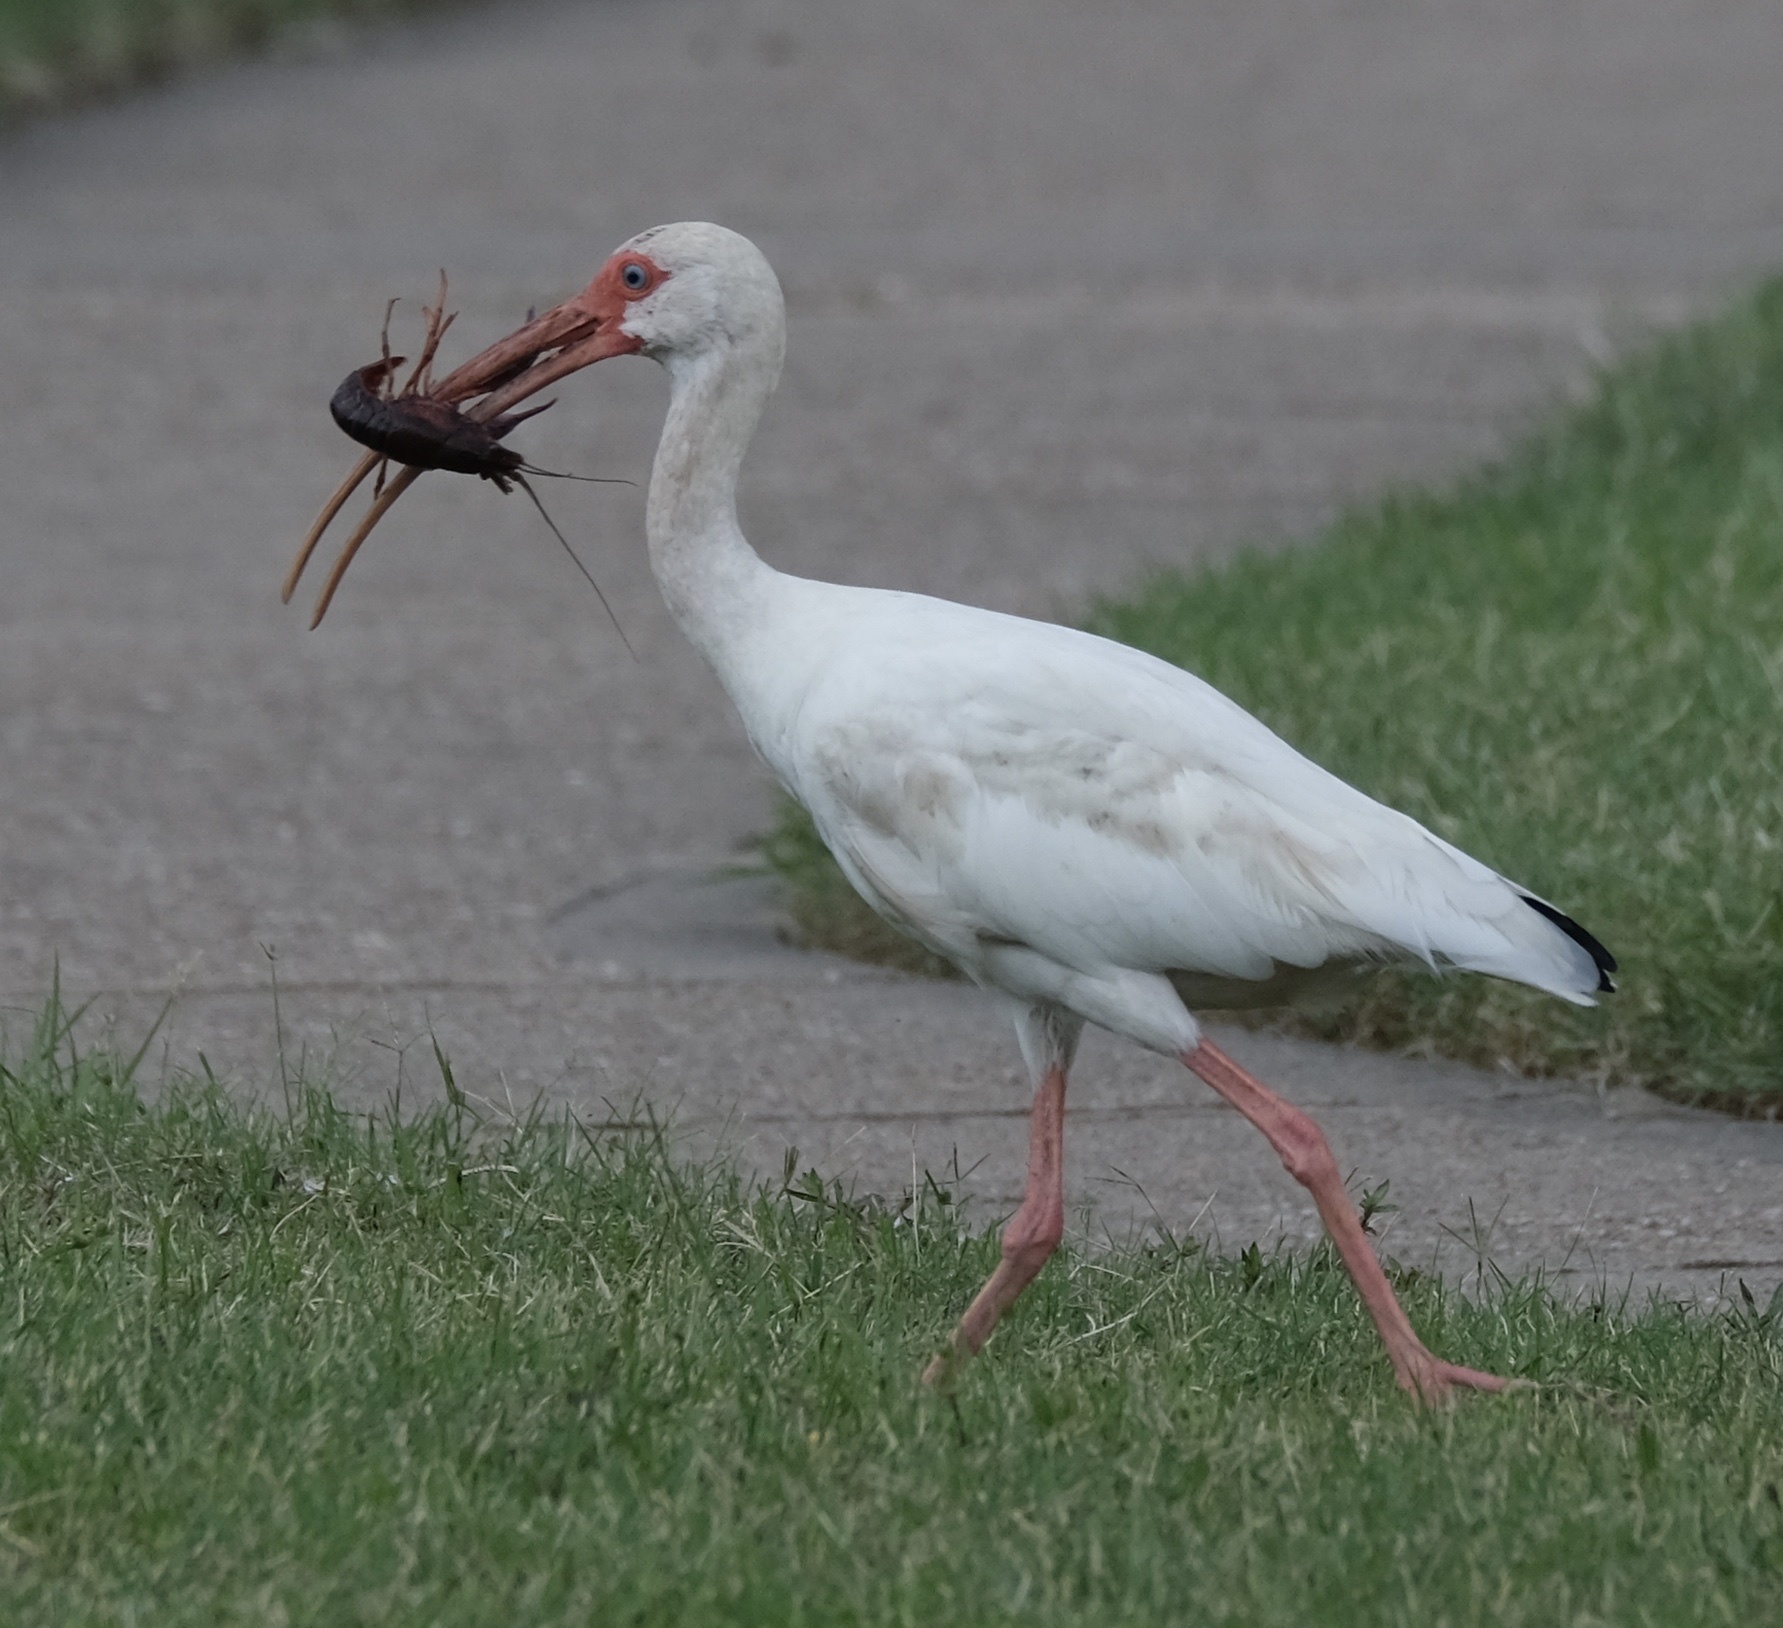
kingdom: Animalia
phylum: Chordata
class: Aves
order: Pelecaniformes
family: Threskiornithidae
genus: Eudocimus
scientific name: Eudocimus albus
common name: White ibis
